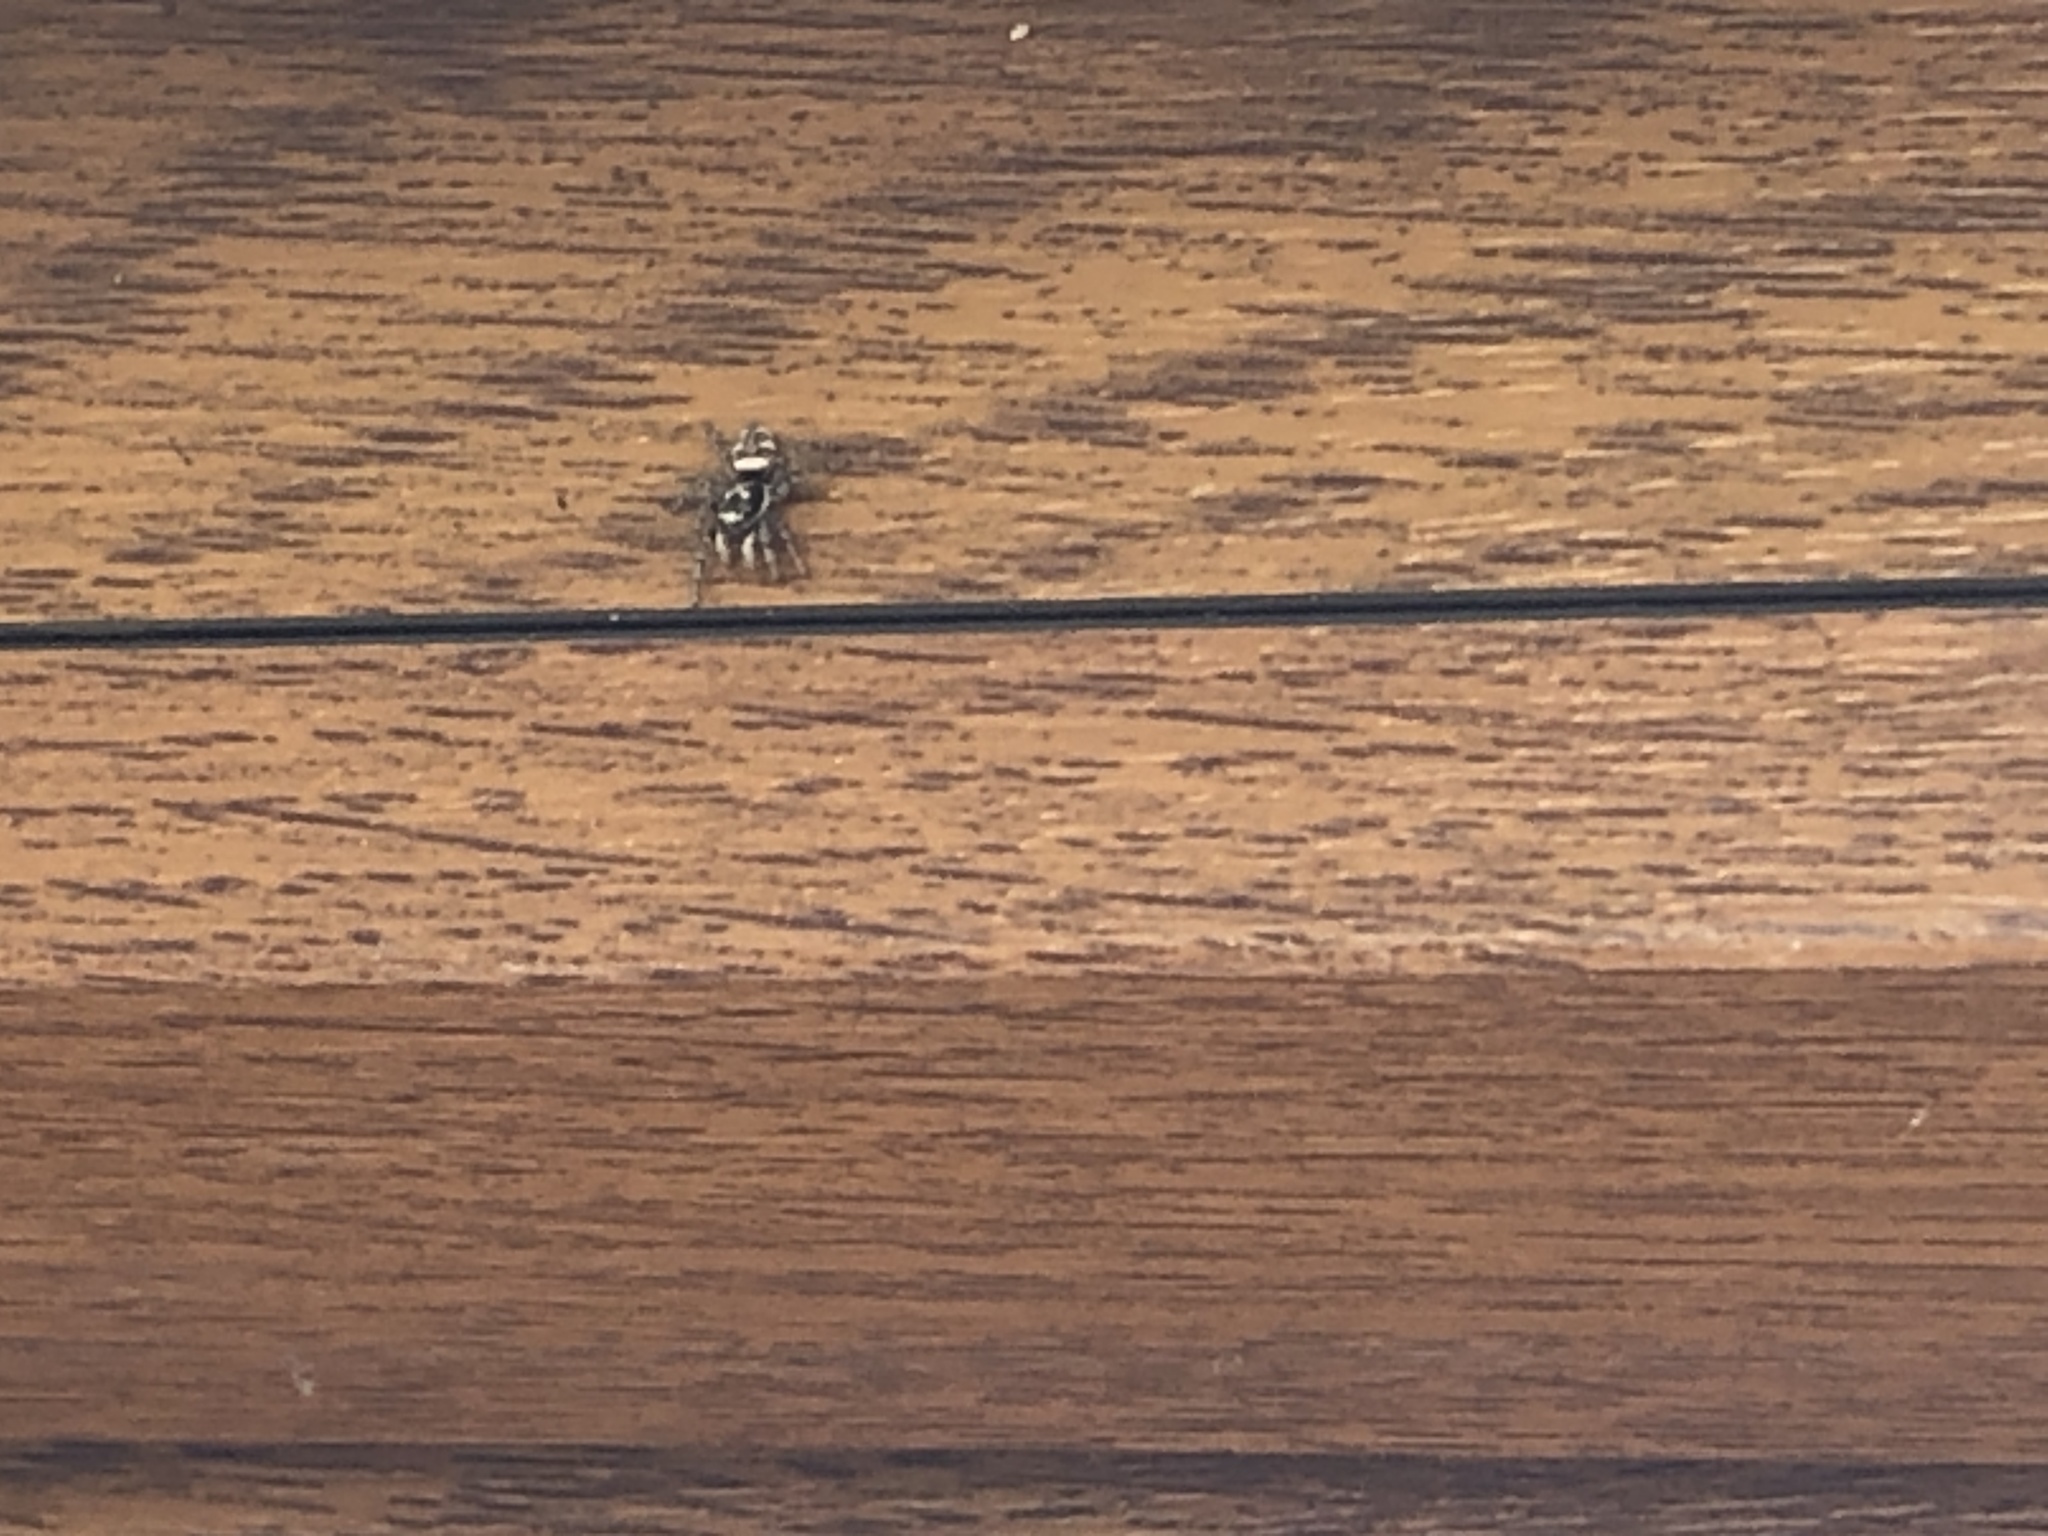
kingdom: Animalia
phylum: Arthropoda
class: Arachnida
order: Araneae
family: Salticidae
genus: Salticus
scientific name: Salticus scenicus
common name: Zebra jumper
